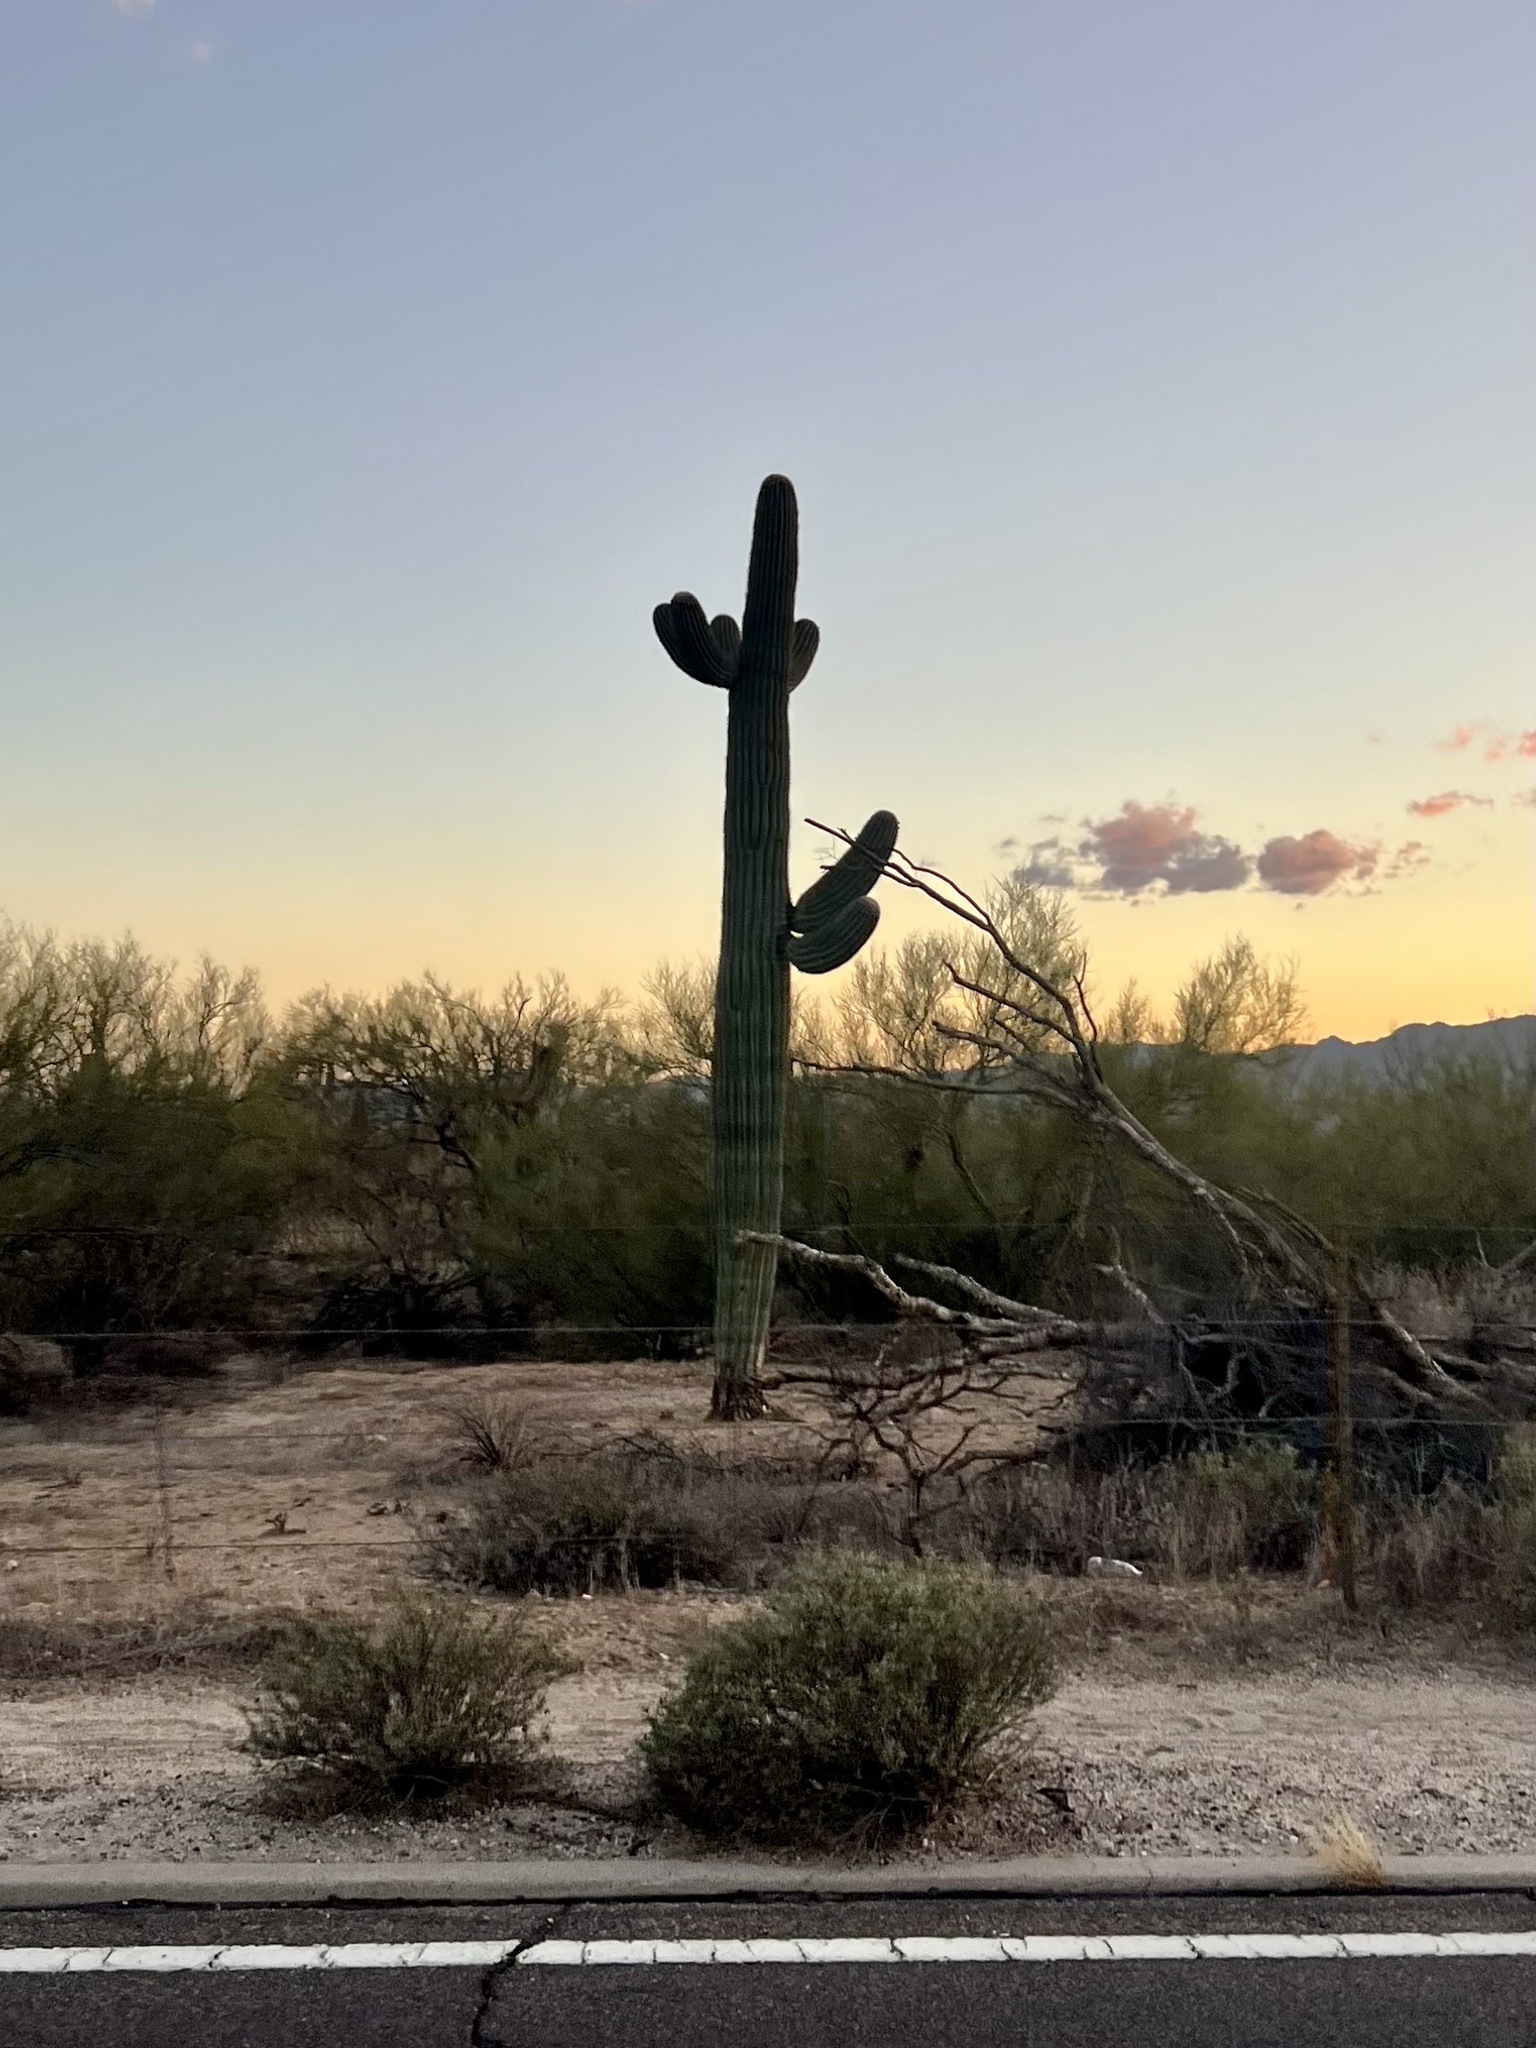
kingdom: Plantae
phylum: Tracheophyta
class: Magnoliopsida
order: Caryophyllales
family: Cactaceae
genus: Carnegiea
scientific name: Carnegiea gigantea
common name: Saguaro
